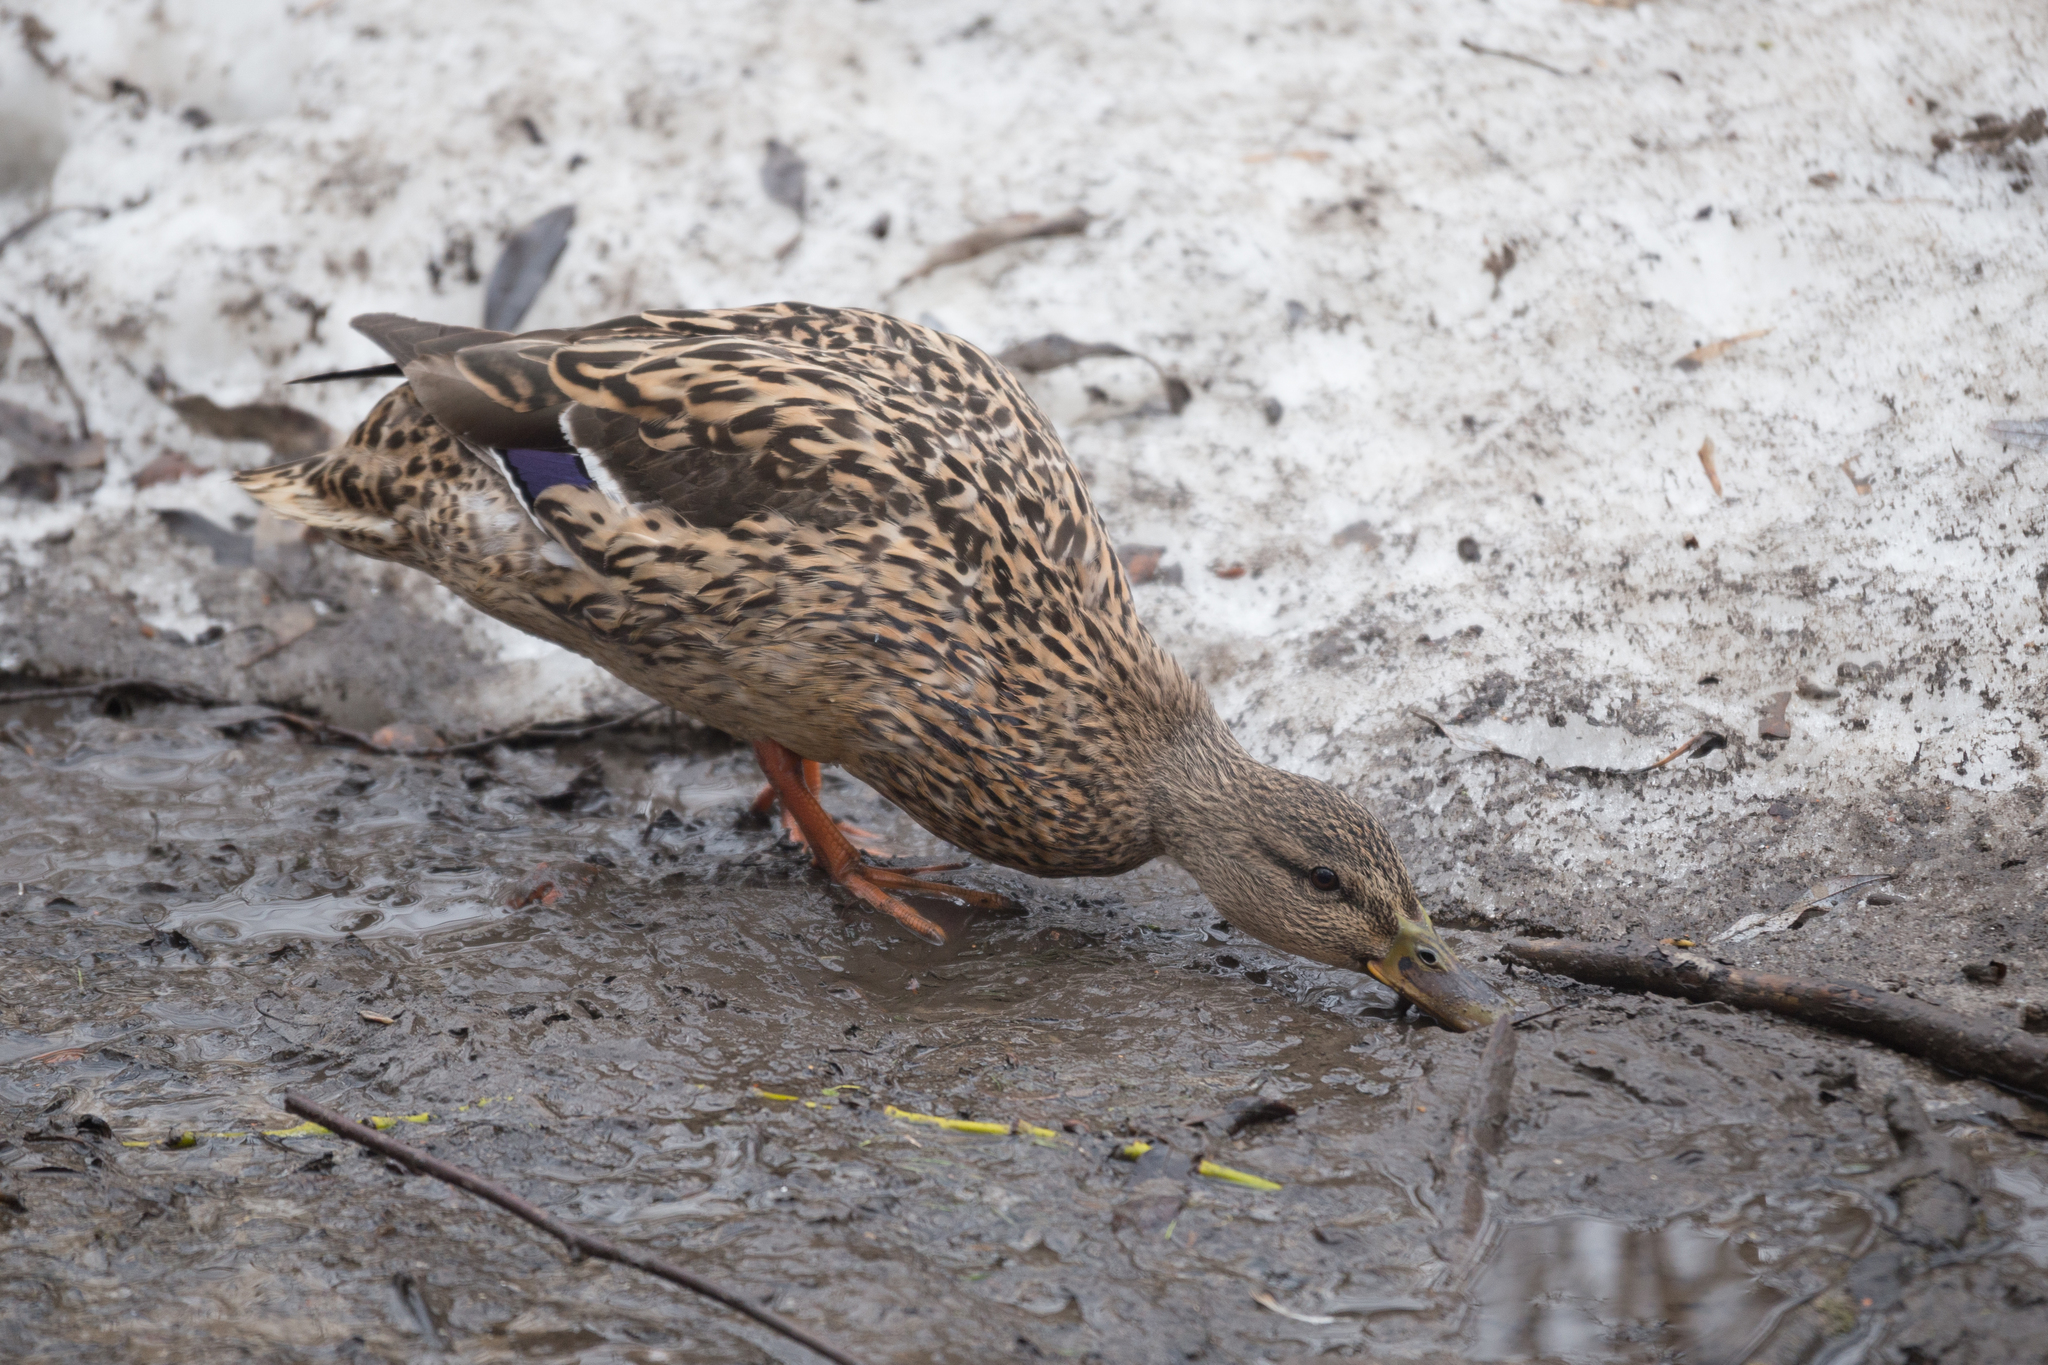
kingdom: Animalia
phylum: Chordata
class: Aves
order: Anseriformes
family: Anatidae
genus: Anas
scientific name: Anas platyrhynchos
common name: Mallard
